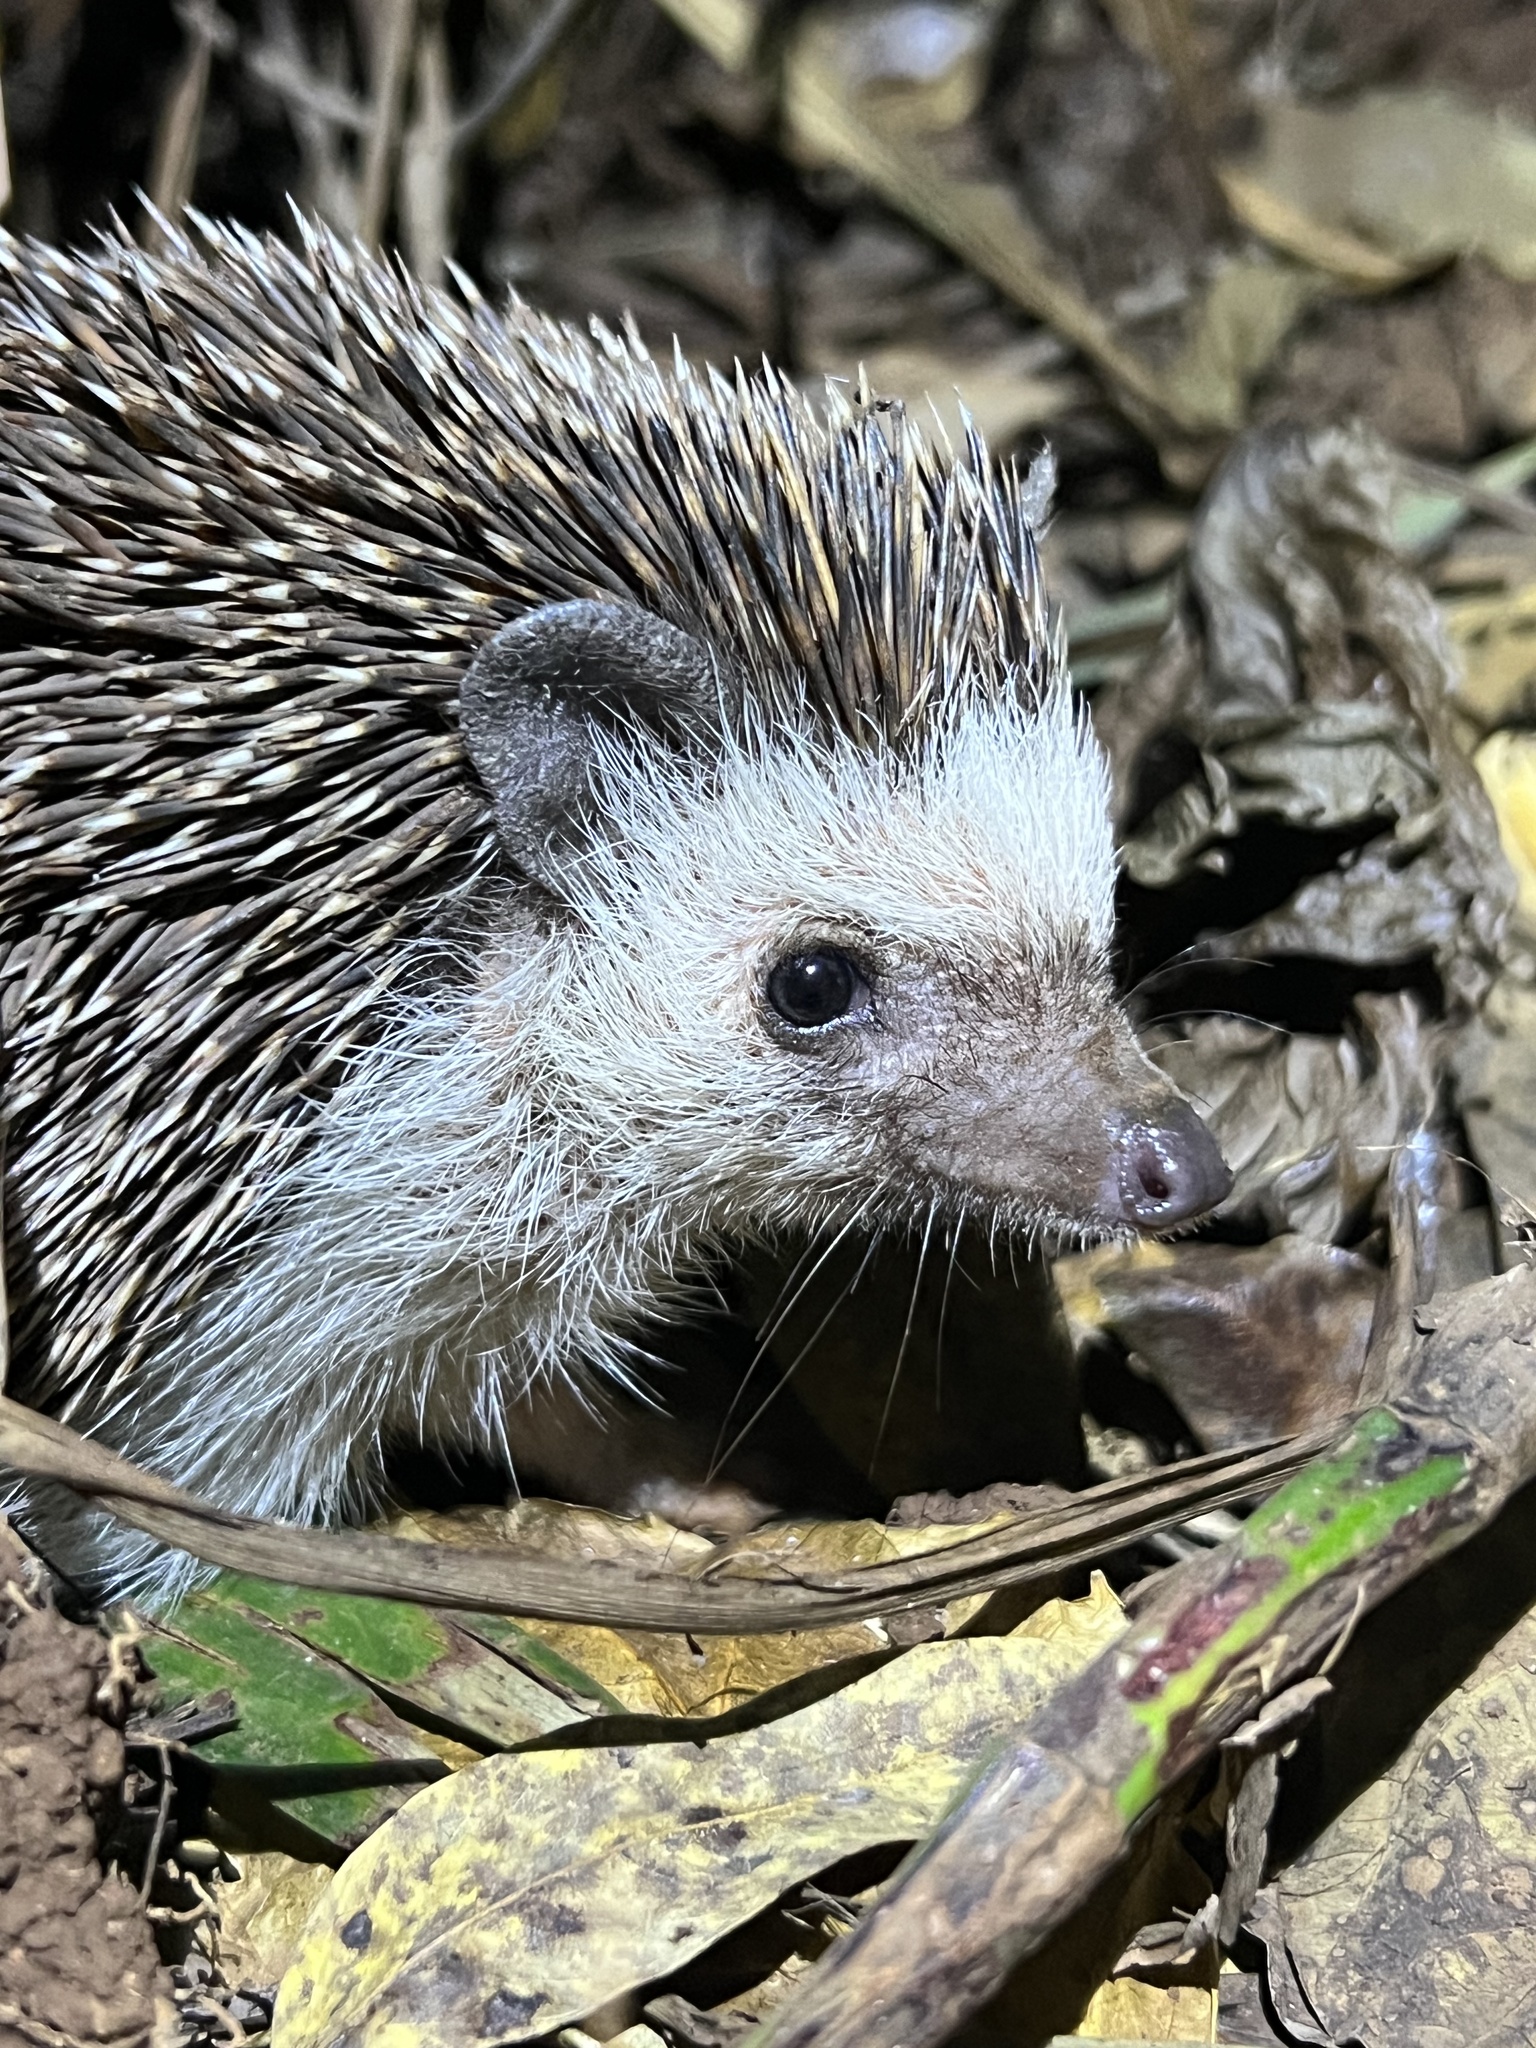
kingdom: Animalia
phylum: Chordata
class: Mammalia
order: Erinaceomorpha
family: Erinaceidae
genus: Atelerix
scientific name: Atelerix albiventris
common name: Four-toed hedgehog
